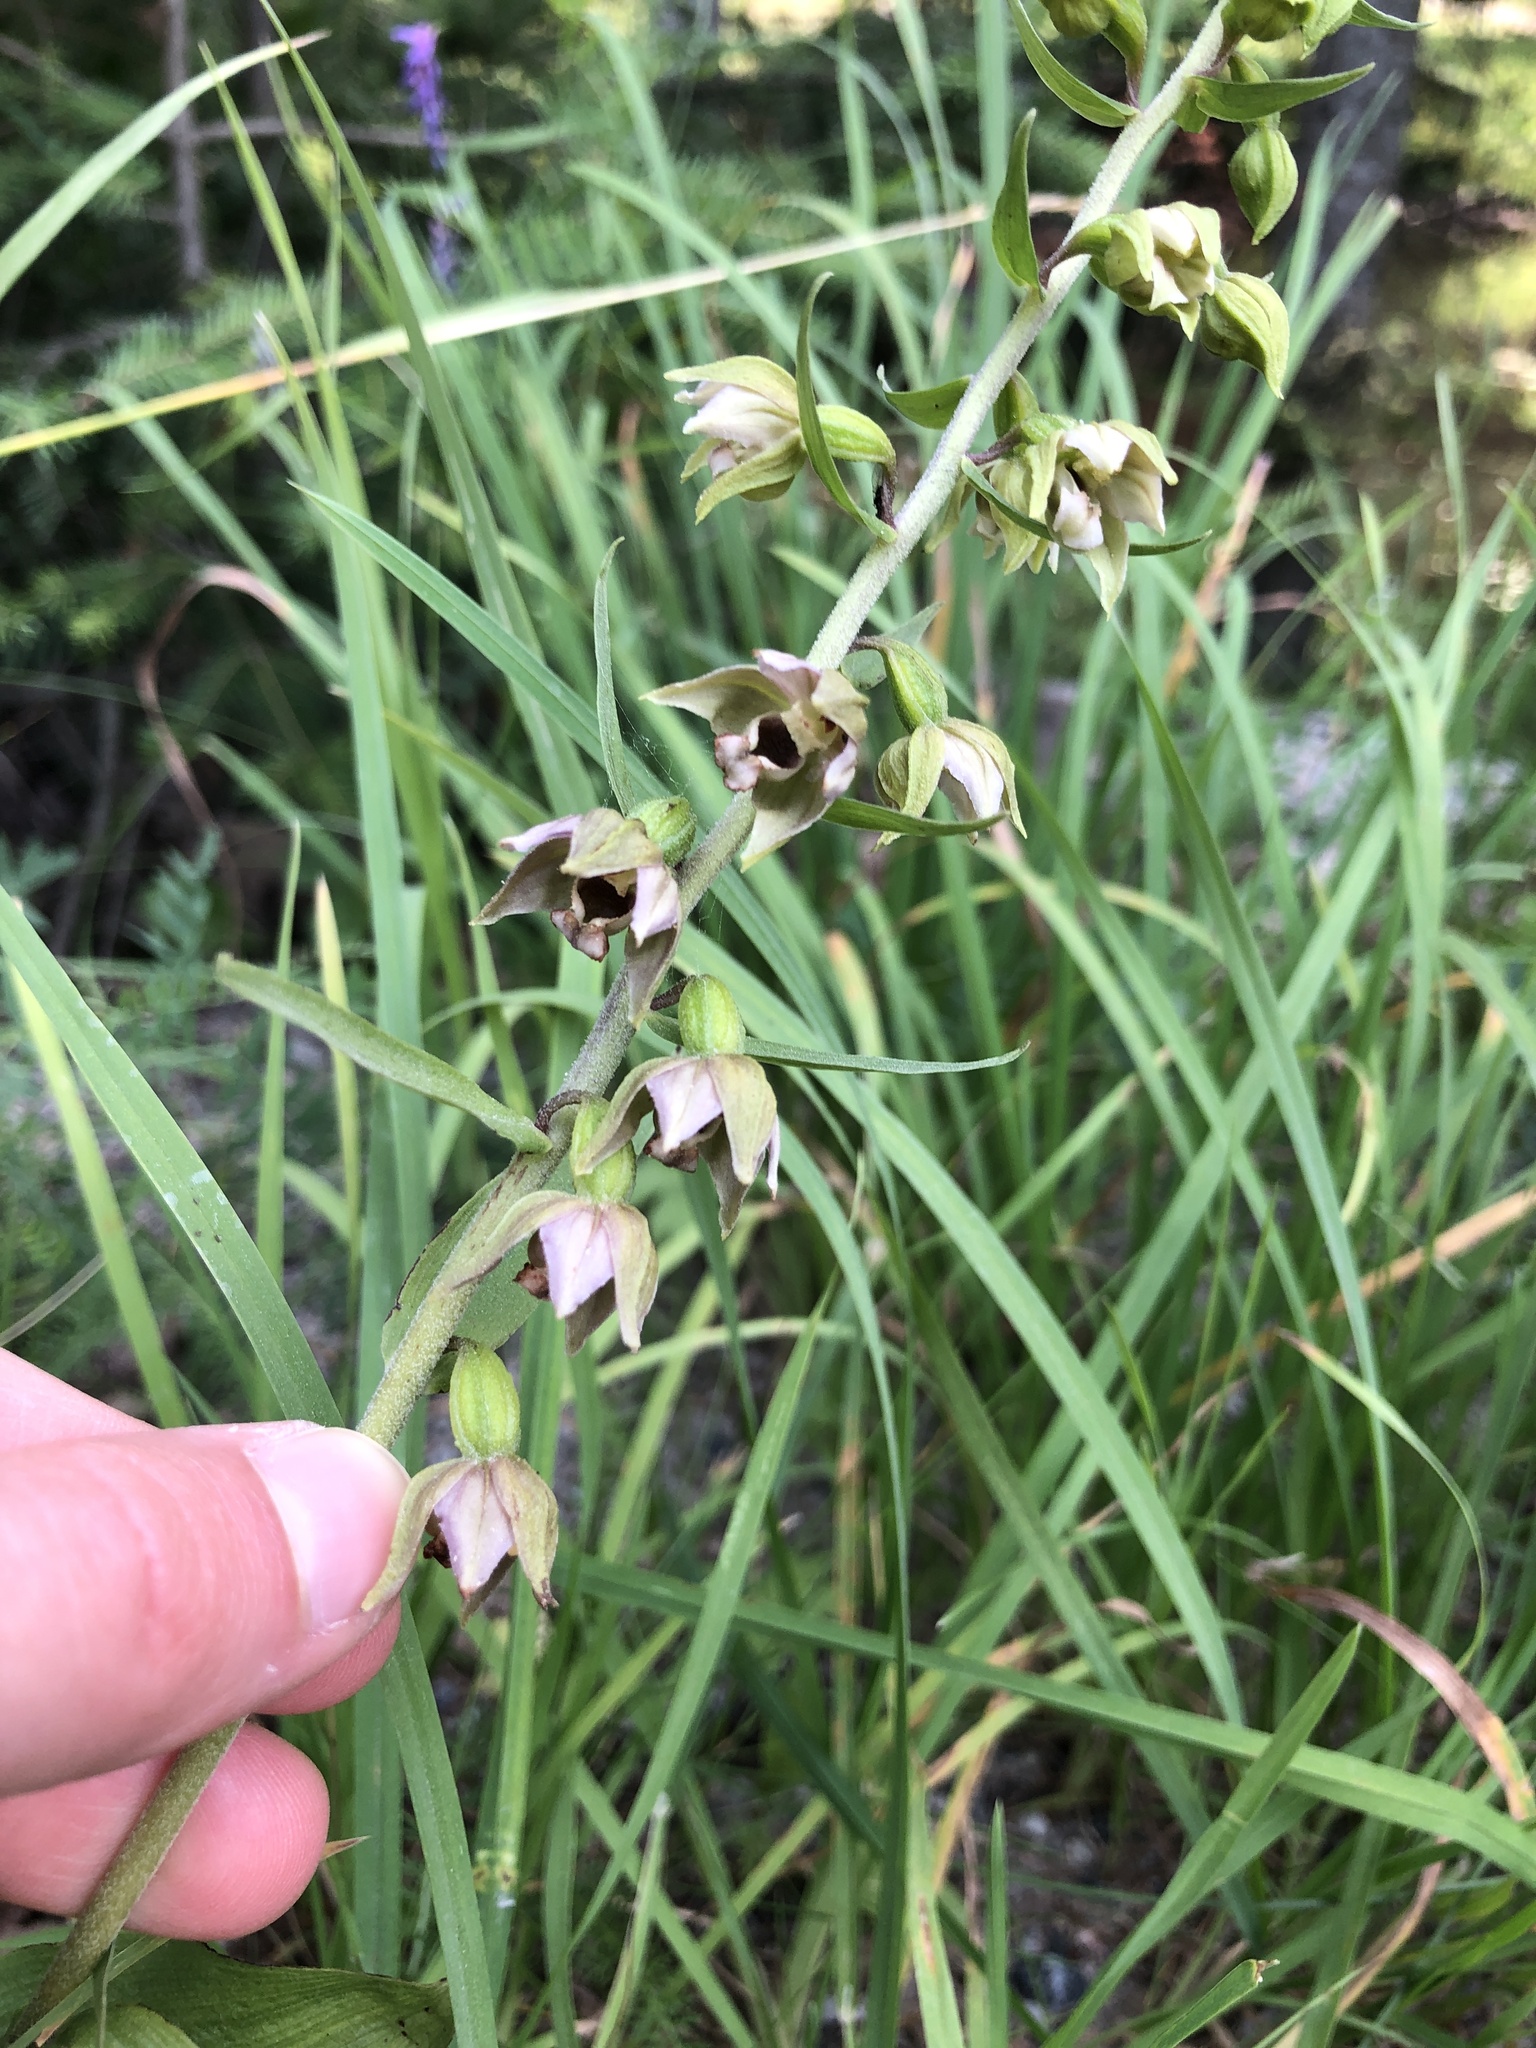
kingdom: Plantae
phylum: Tracheophyta
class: Liliopsida
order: Asparagales
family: Orchidaceae
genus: Epipactis
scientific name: Epipactis helleborine
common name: Broad-leaved helleborine
